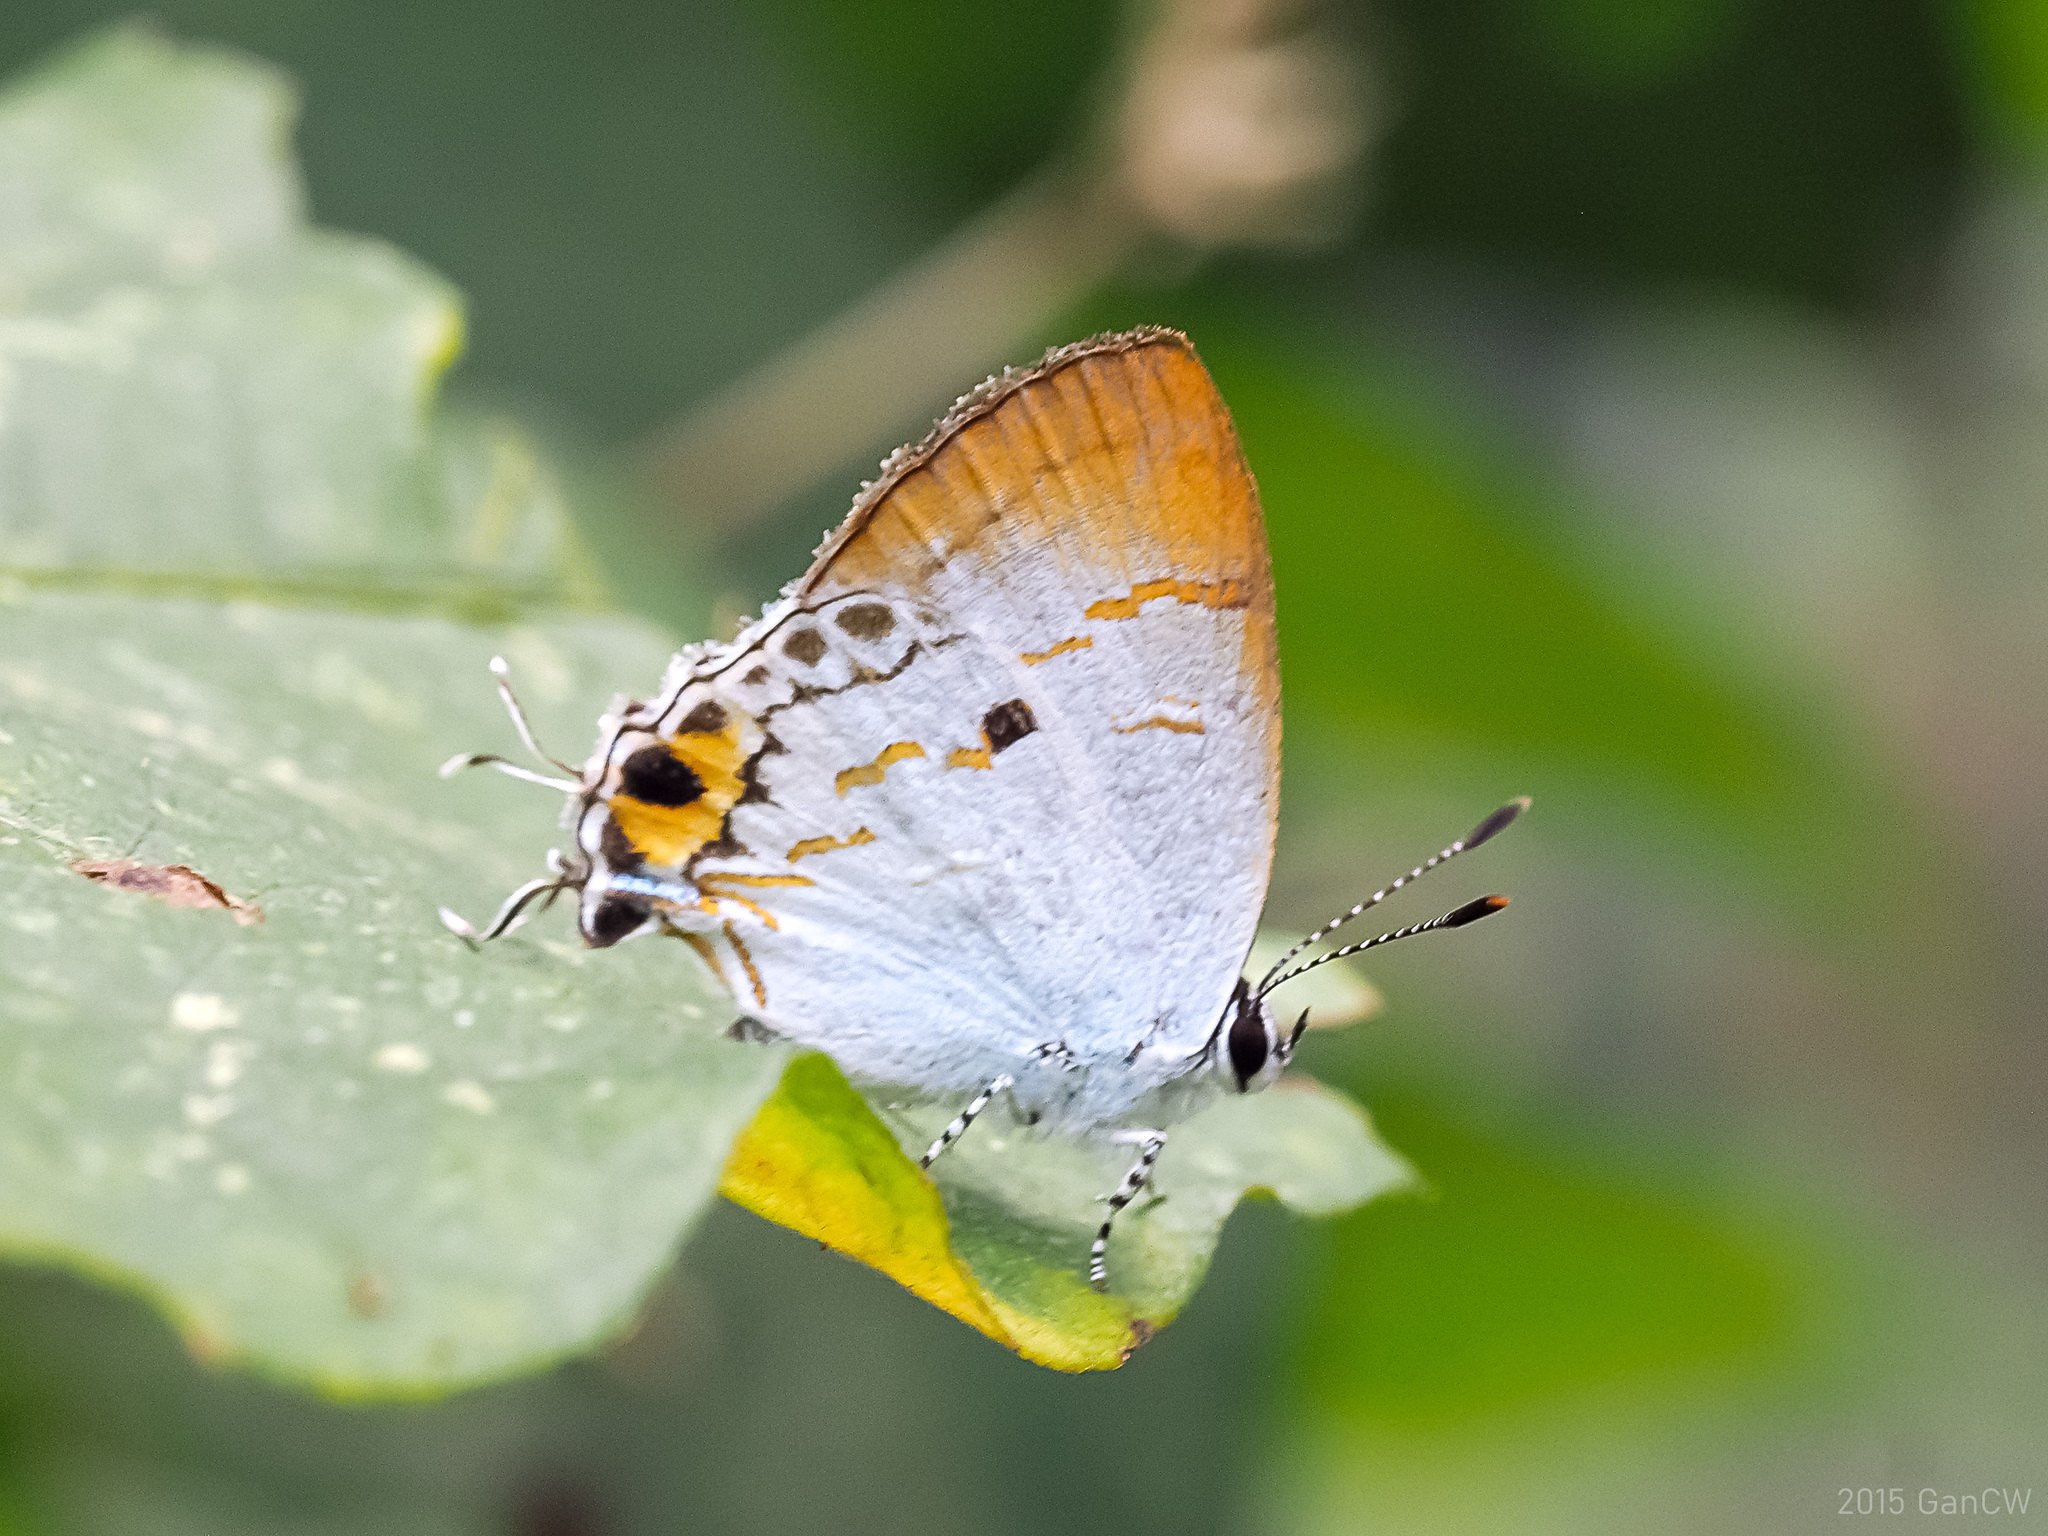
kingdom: Animalia
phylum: Arthropoda
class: Insecta
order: Lepidoptera
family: Lycaenidae
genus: Chliaria
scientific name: Chliaria othona
